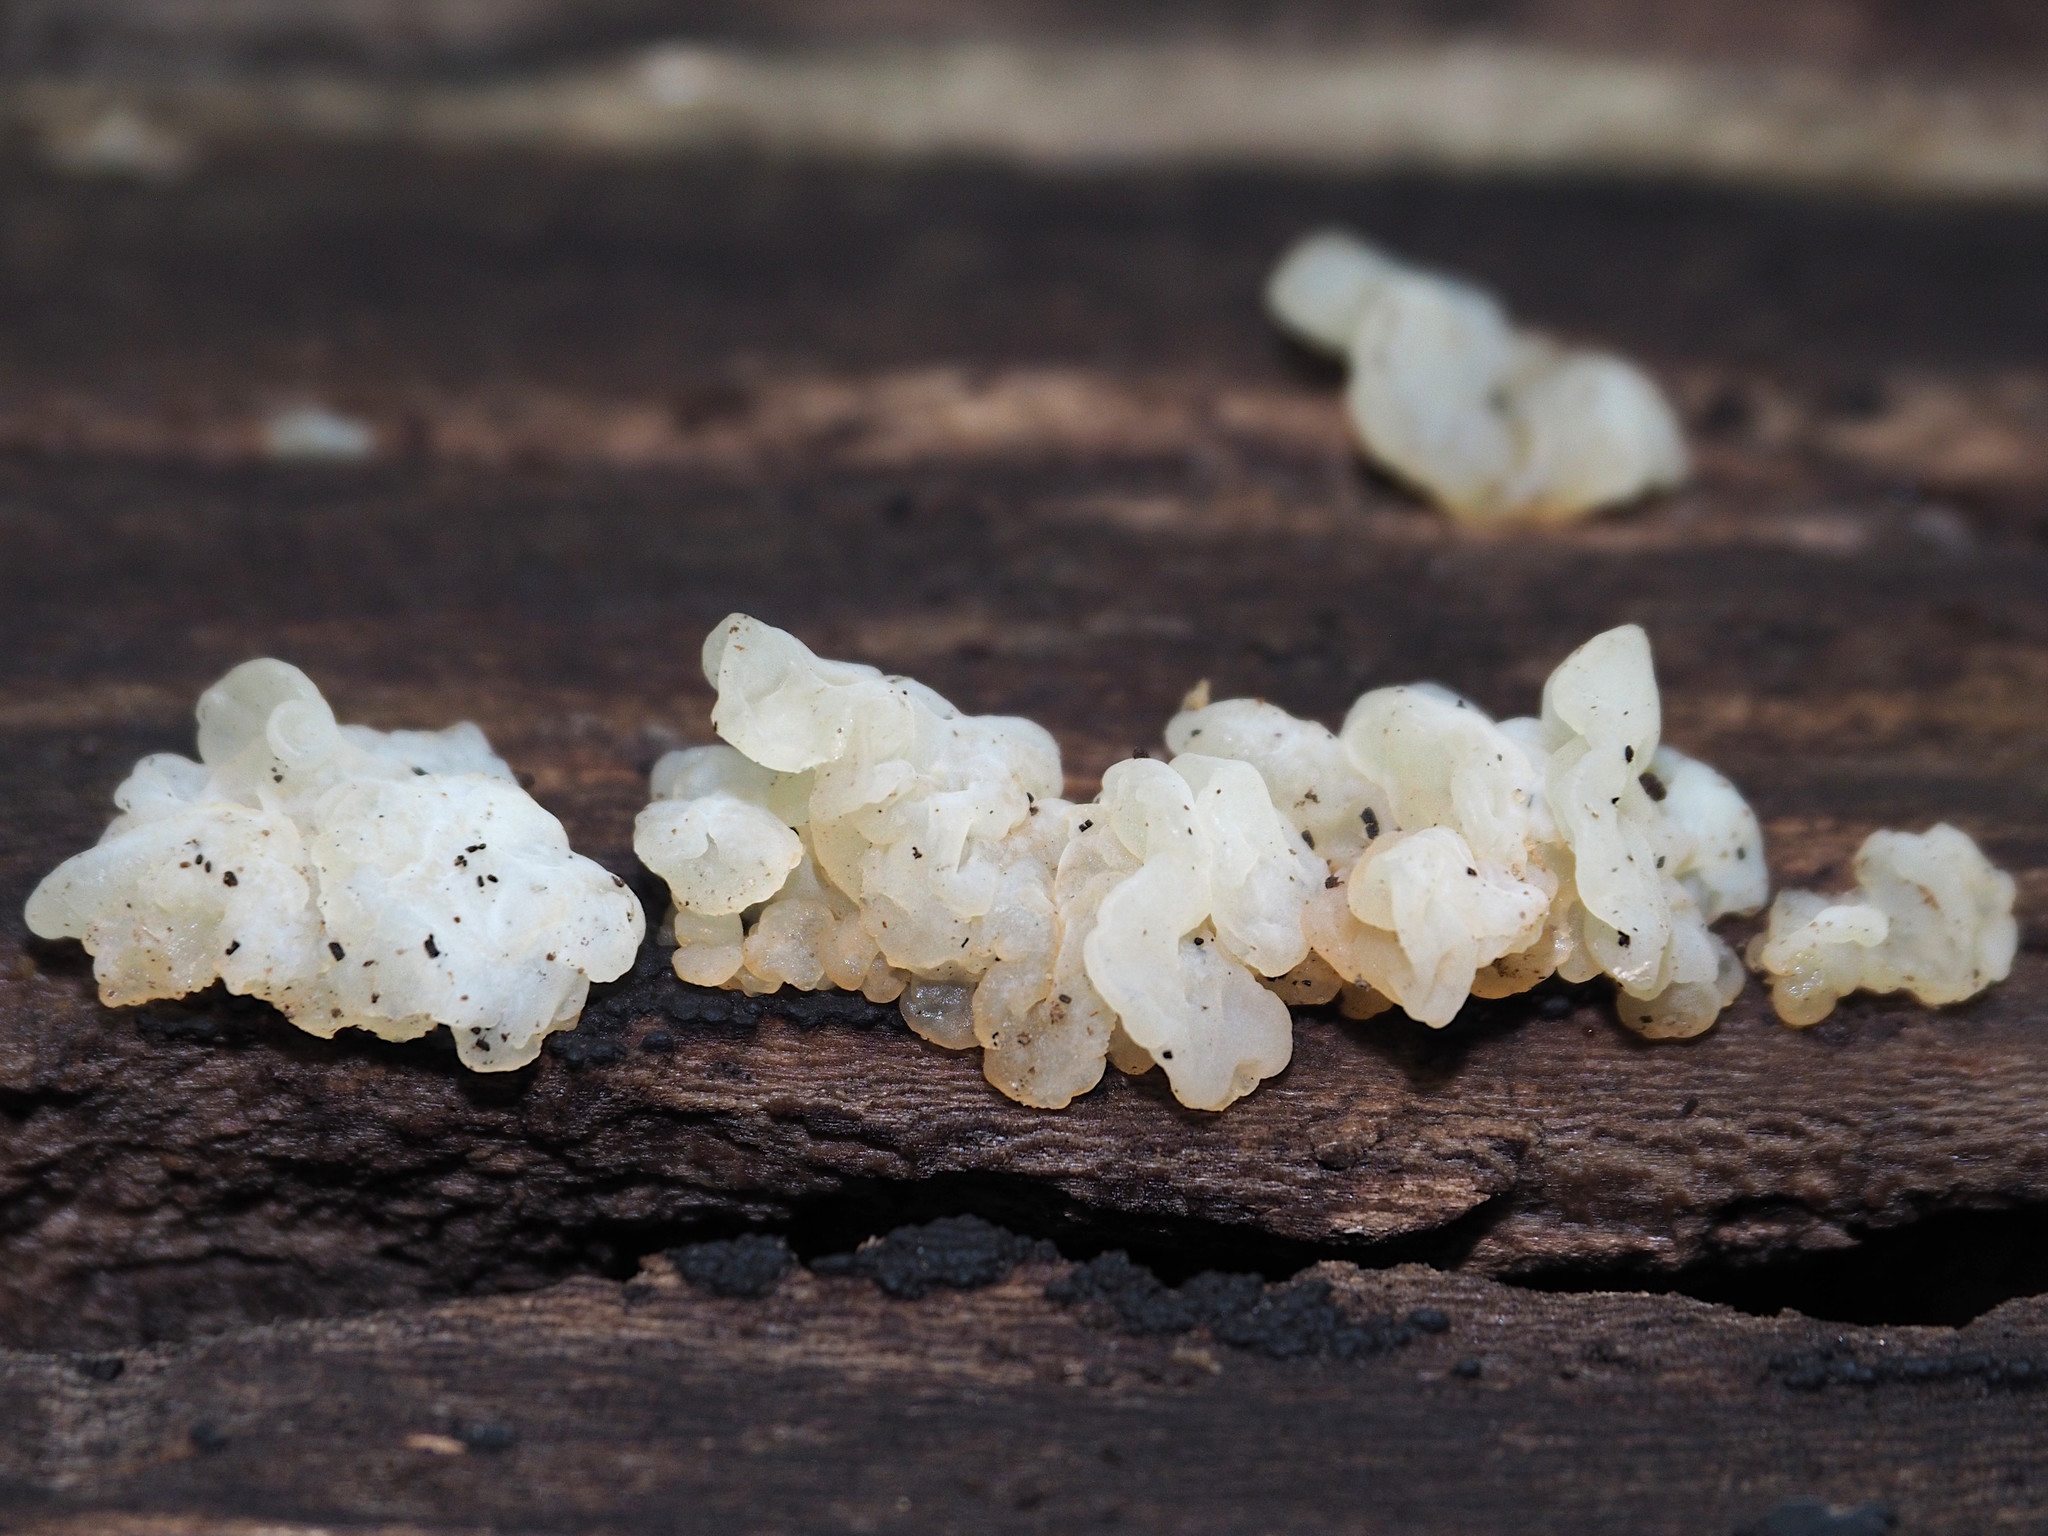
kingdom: Fungi
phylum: Basidiomycota
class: Agaricomycetes
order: Auriculariales
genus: Ductifera
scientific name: Ductifera pululahuana
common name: White jelly fungus
